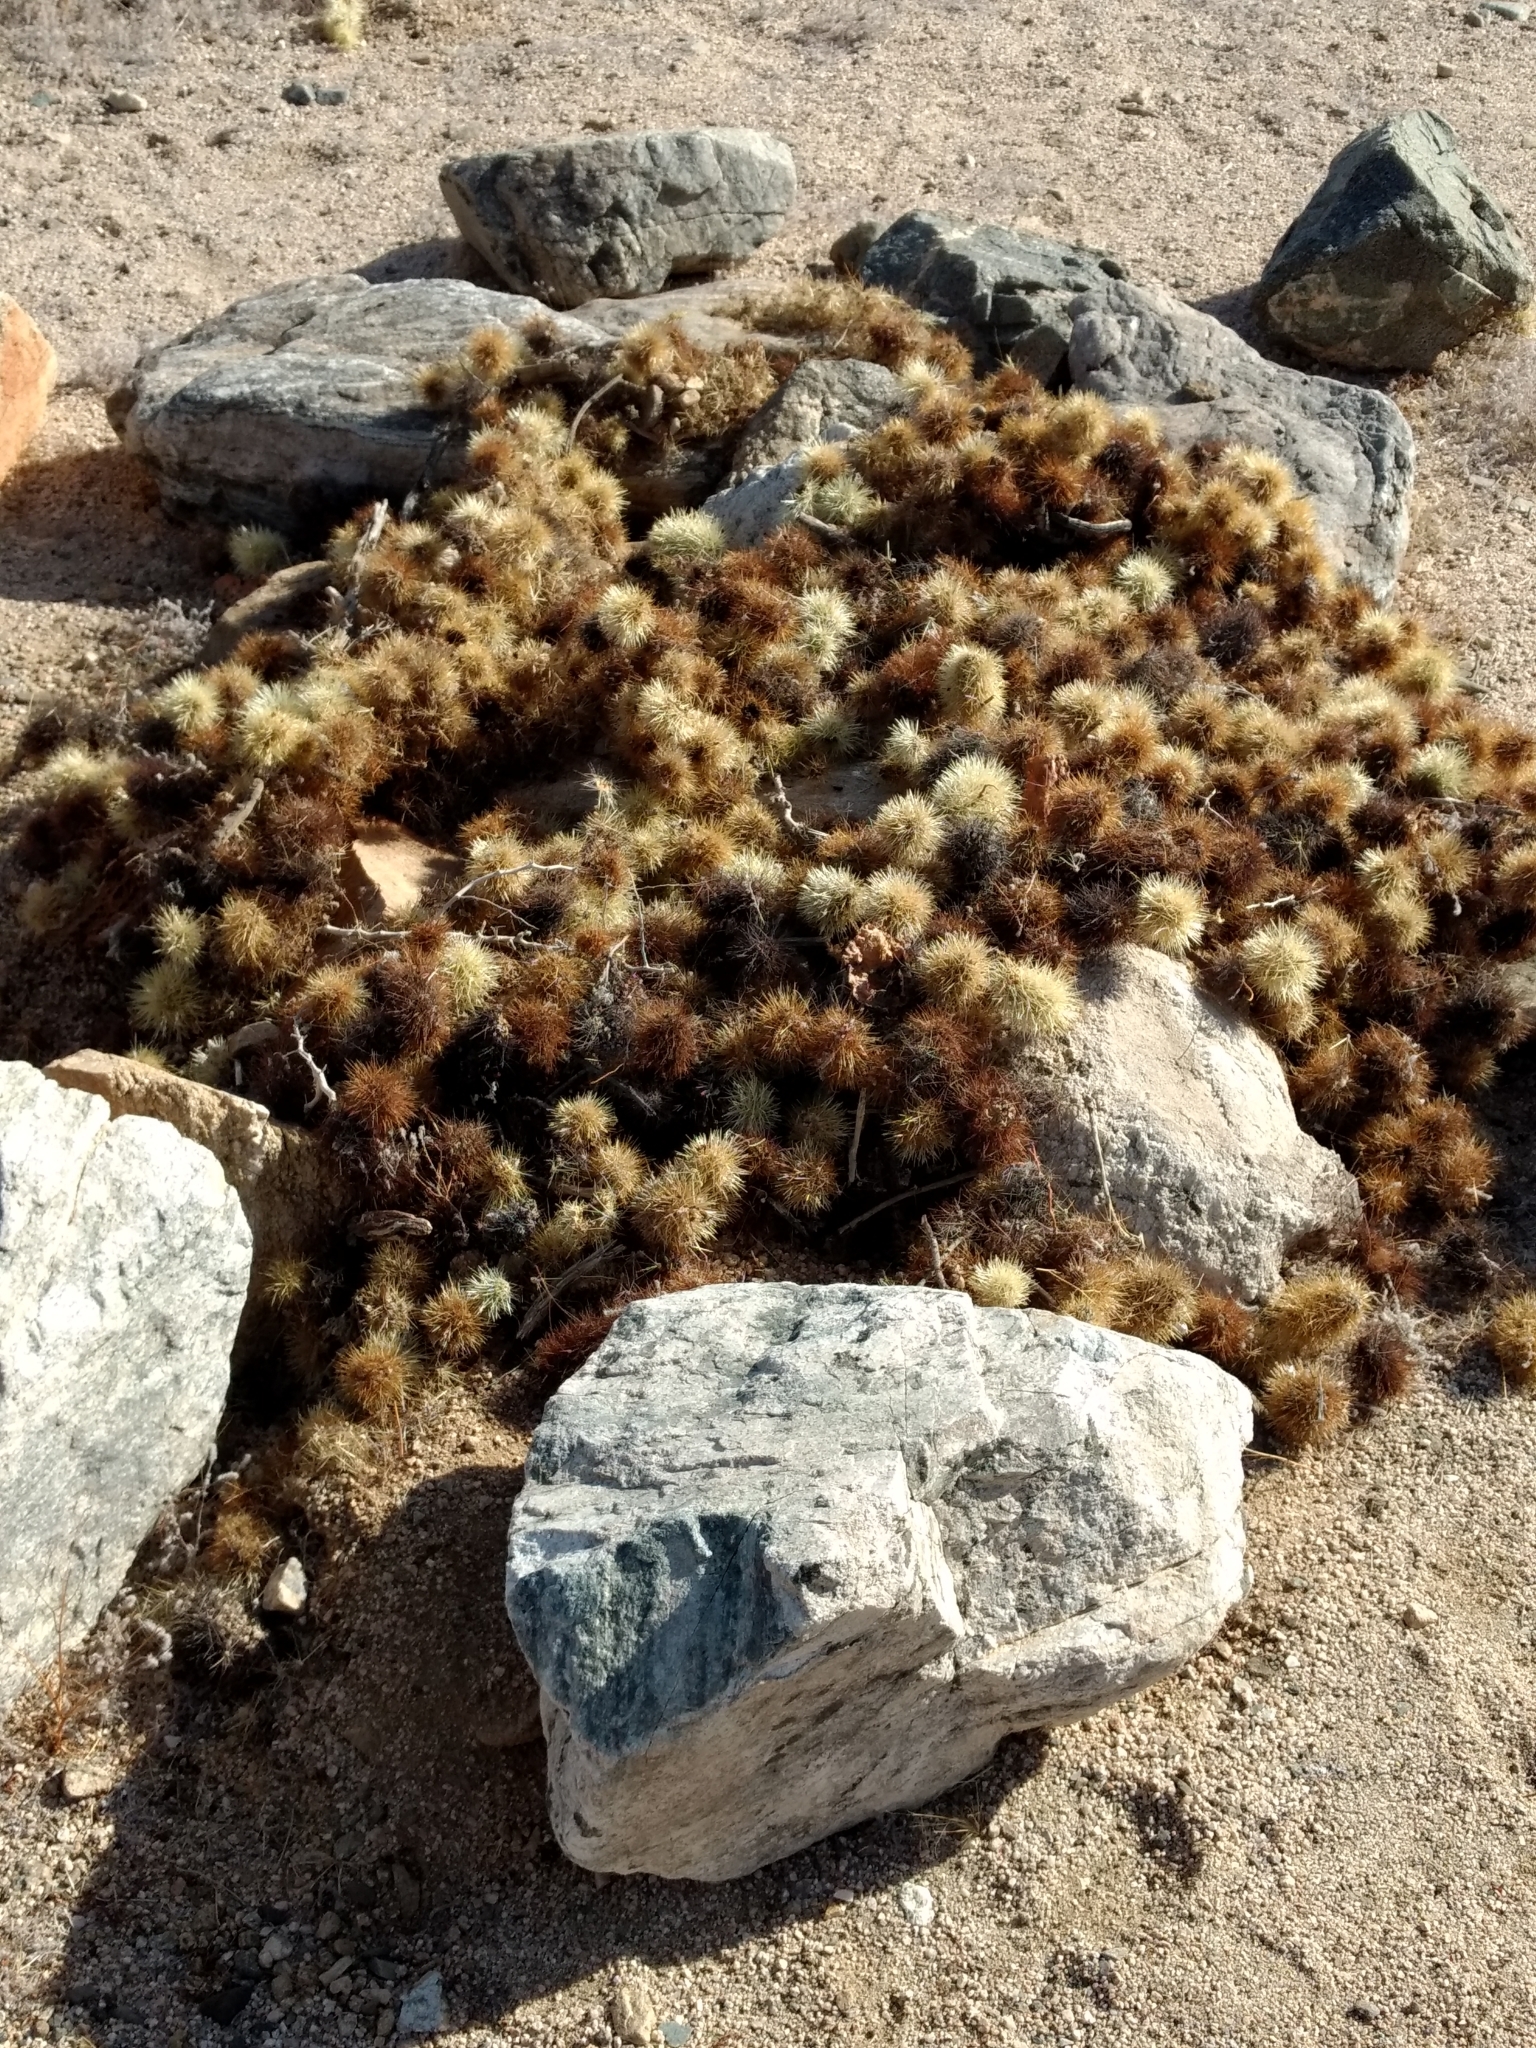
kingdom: Plantae
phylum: Tracheophyta
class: Magnoliopsida
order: Caryophyllales
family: Cactaceae
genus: Cylindropuntia
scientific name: Cylindropuntia fosbergii
